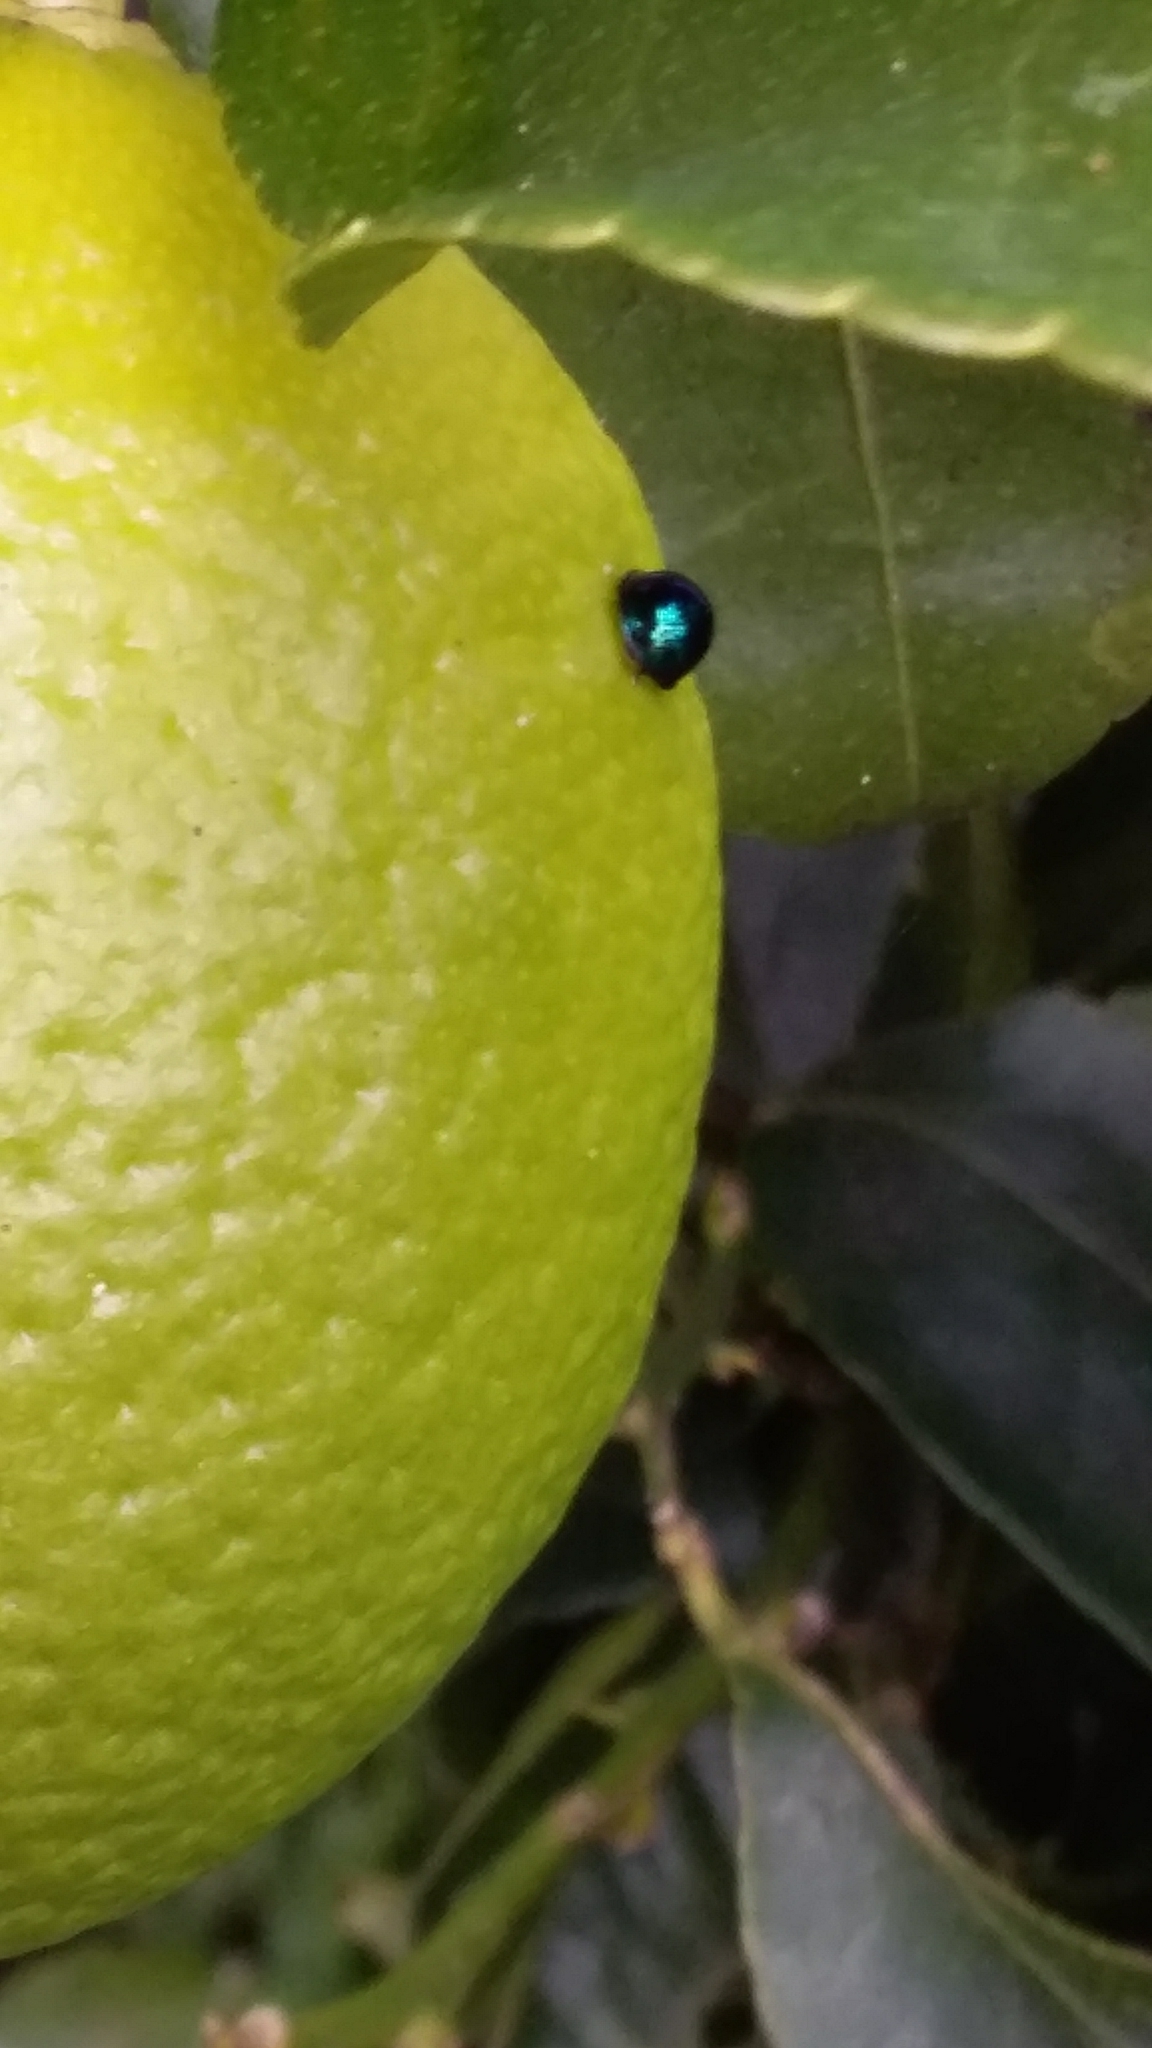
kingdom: Animalia
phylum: Arthropoda
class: Insecta
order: Coleoptera
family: Coccinellidae
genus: Halmus
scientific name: Halmus chalybeus
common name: Steel blue ladybird beetle
